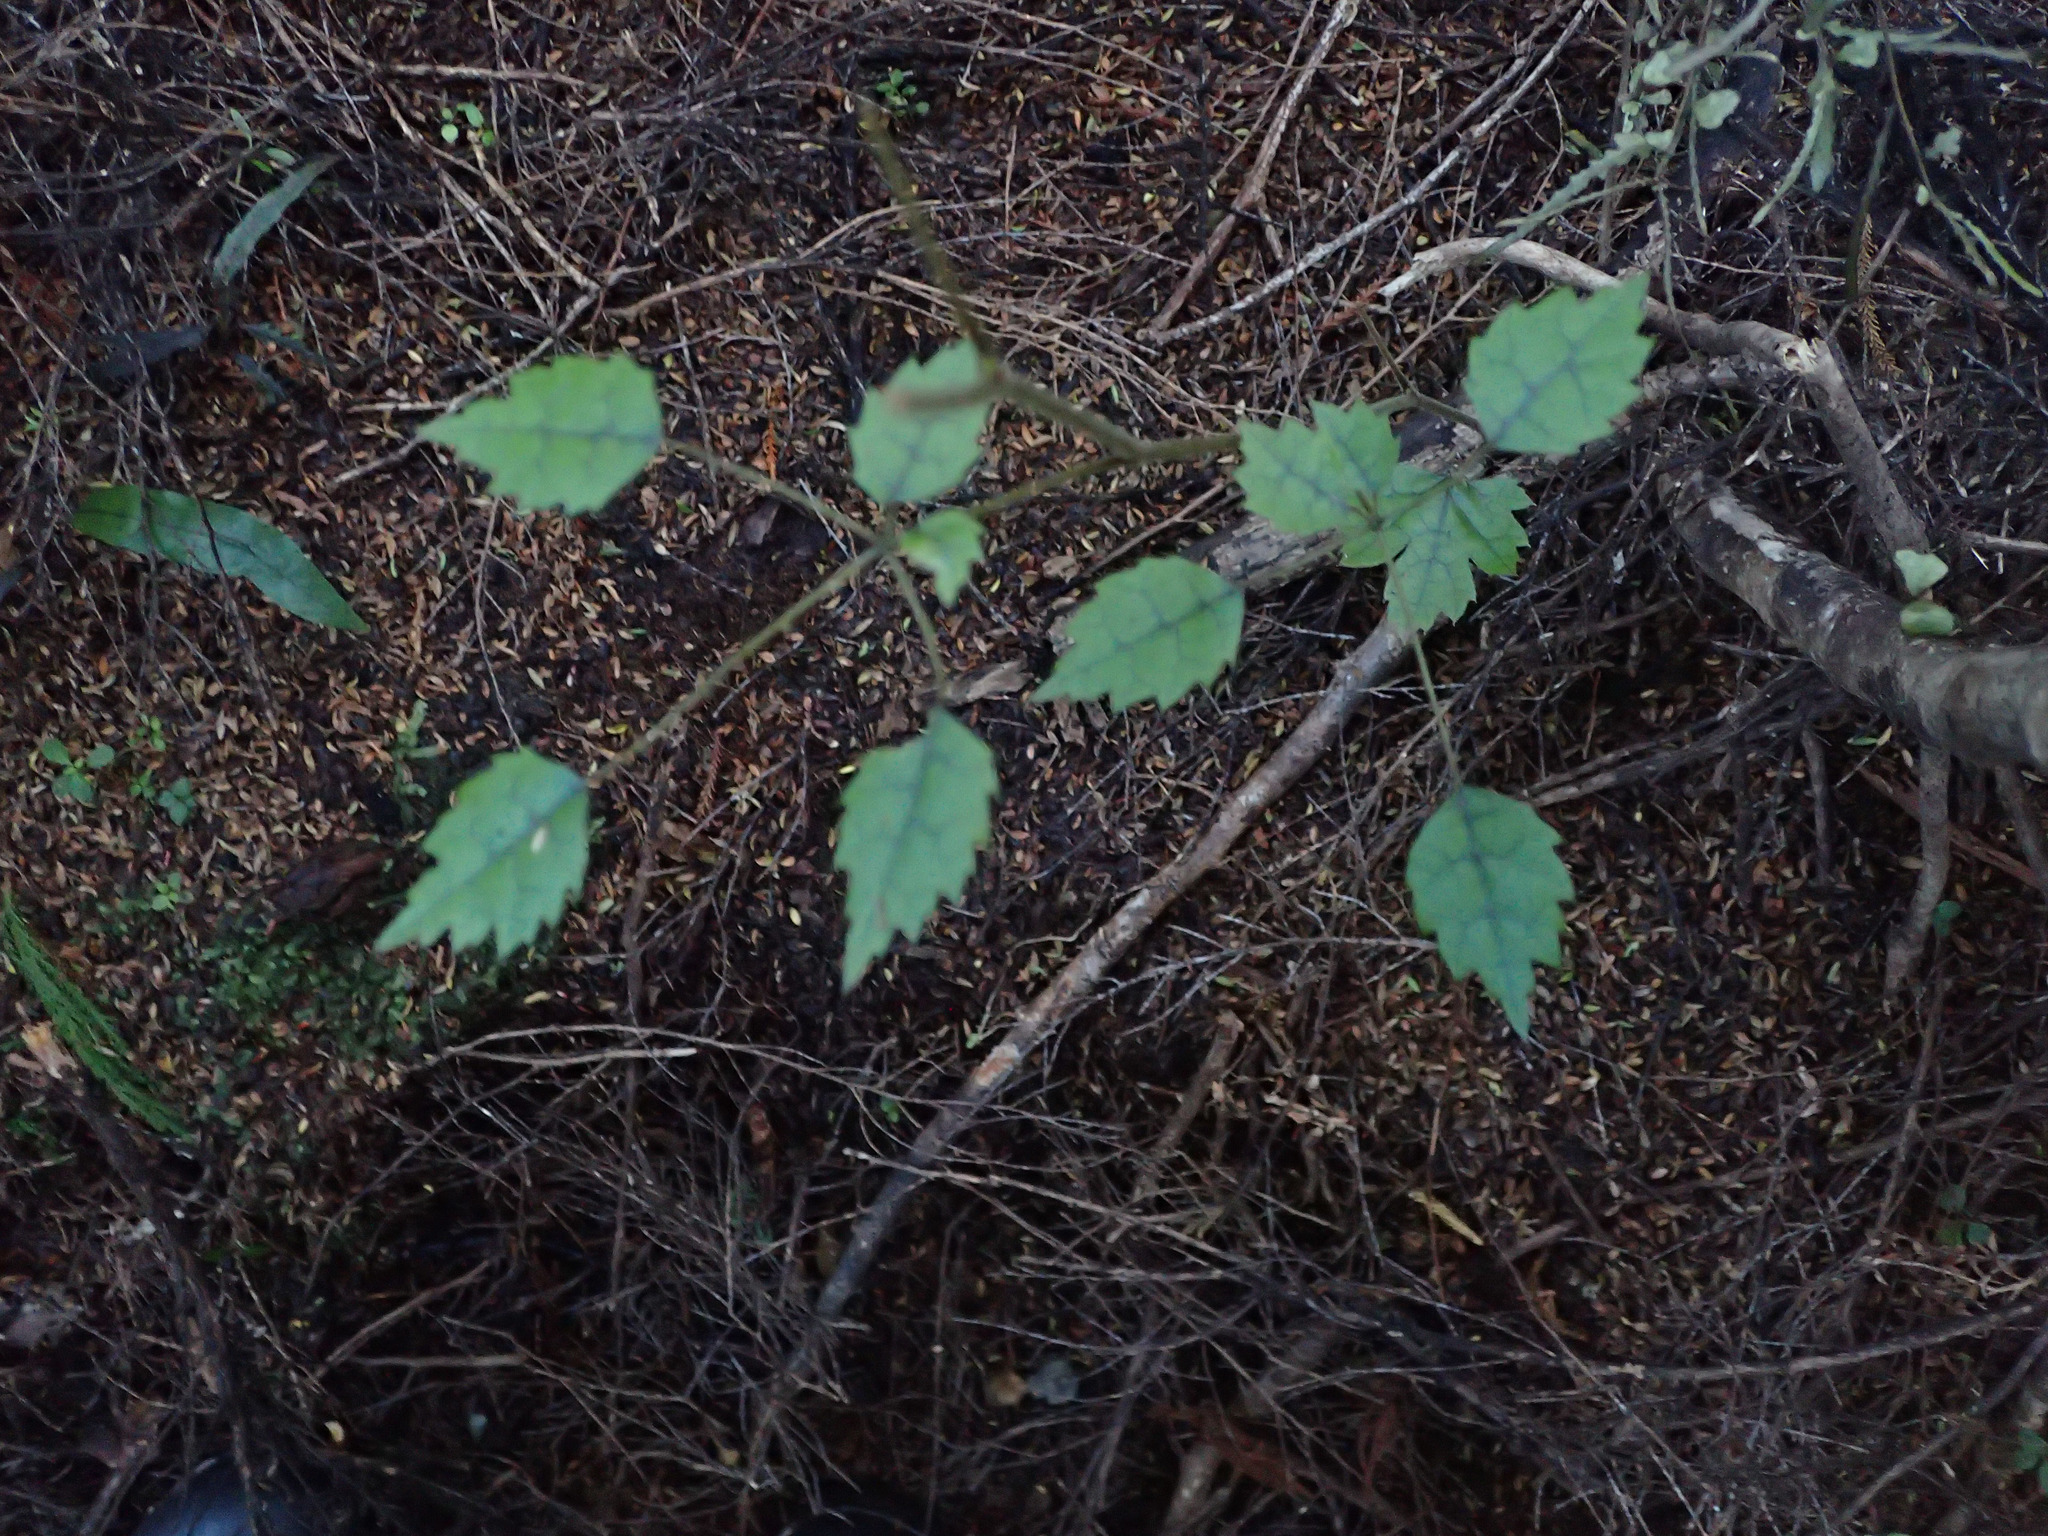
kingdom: Plantae
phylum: Tracheophyta
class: Magnoliopsida
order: Rosales
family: Rosaceae
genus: Rubus
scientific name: Rubus australis
